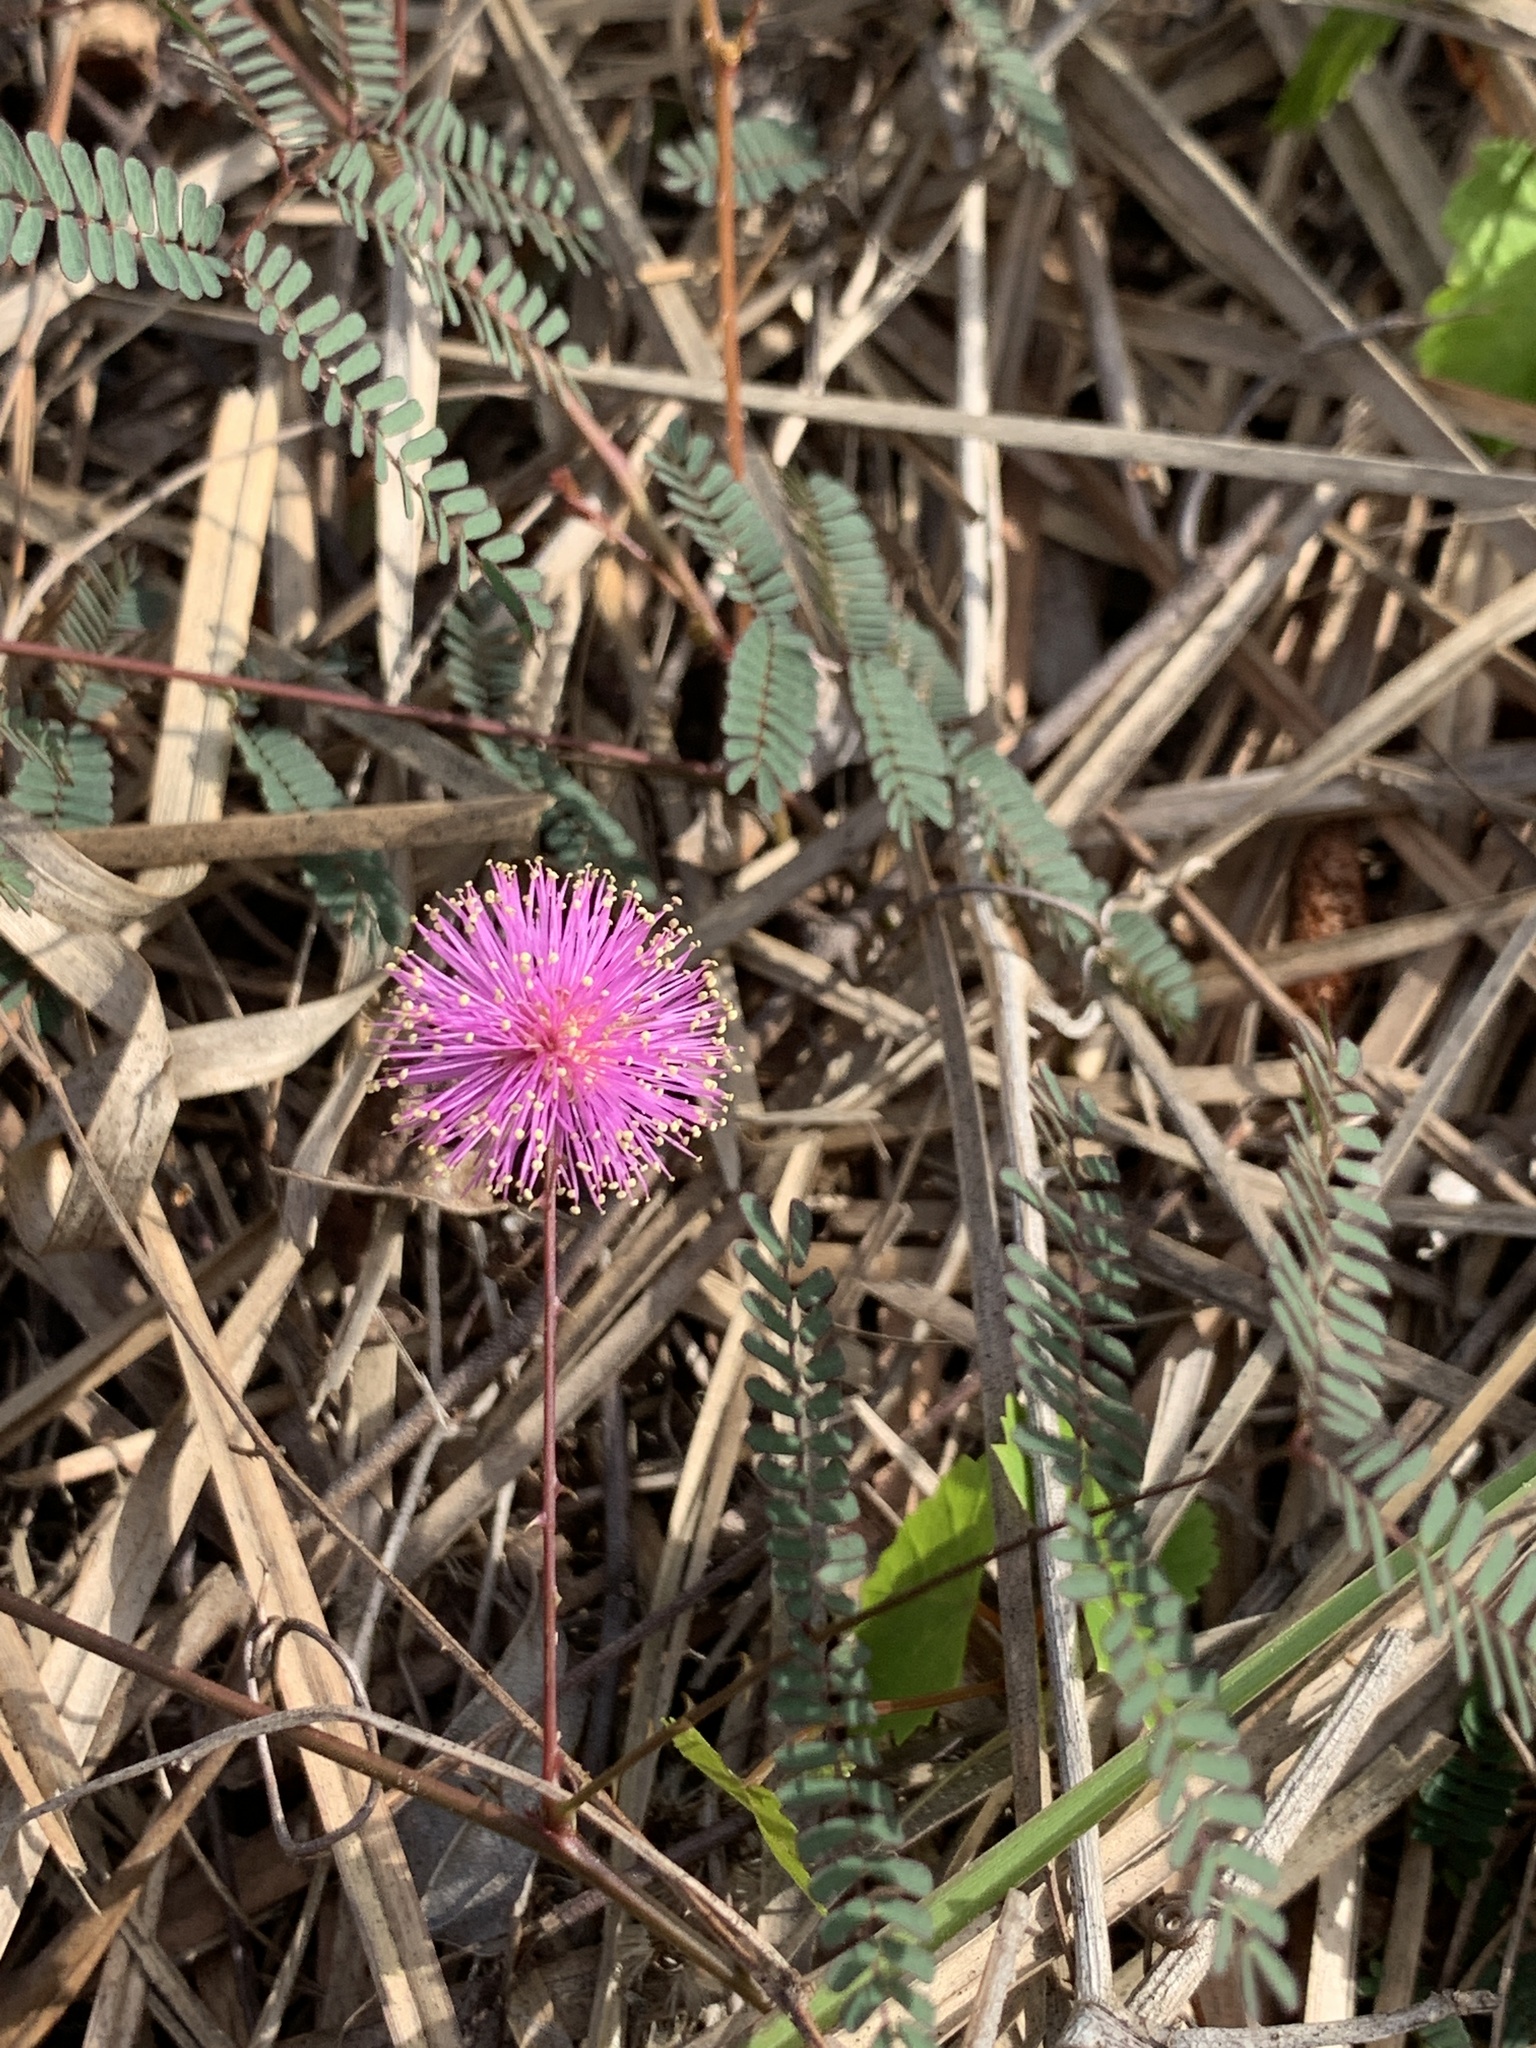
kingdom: Plantae
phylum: Tracheophyta
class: Magnoliopsida
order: Fabales
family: Fabaceae
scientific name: Fabaceae
